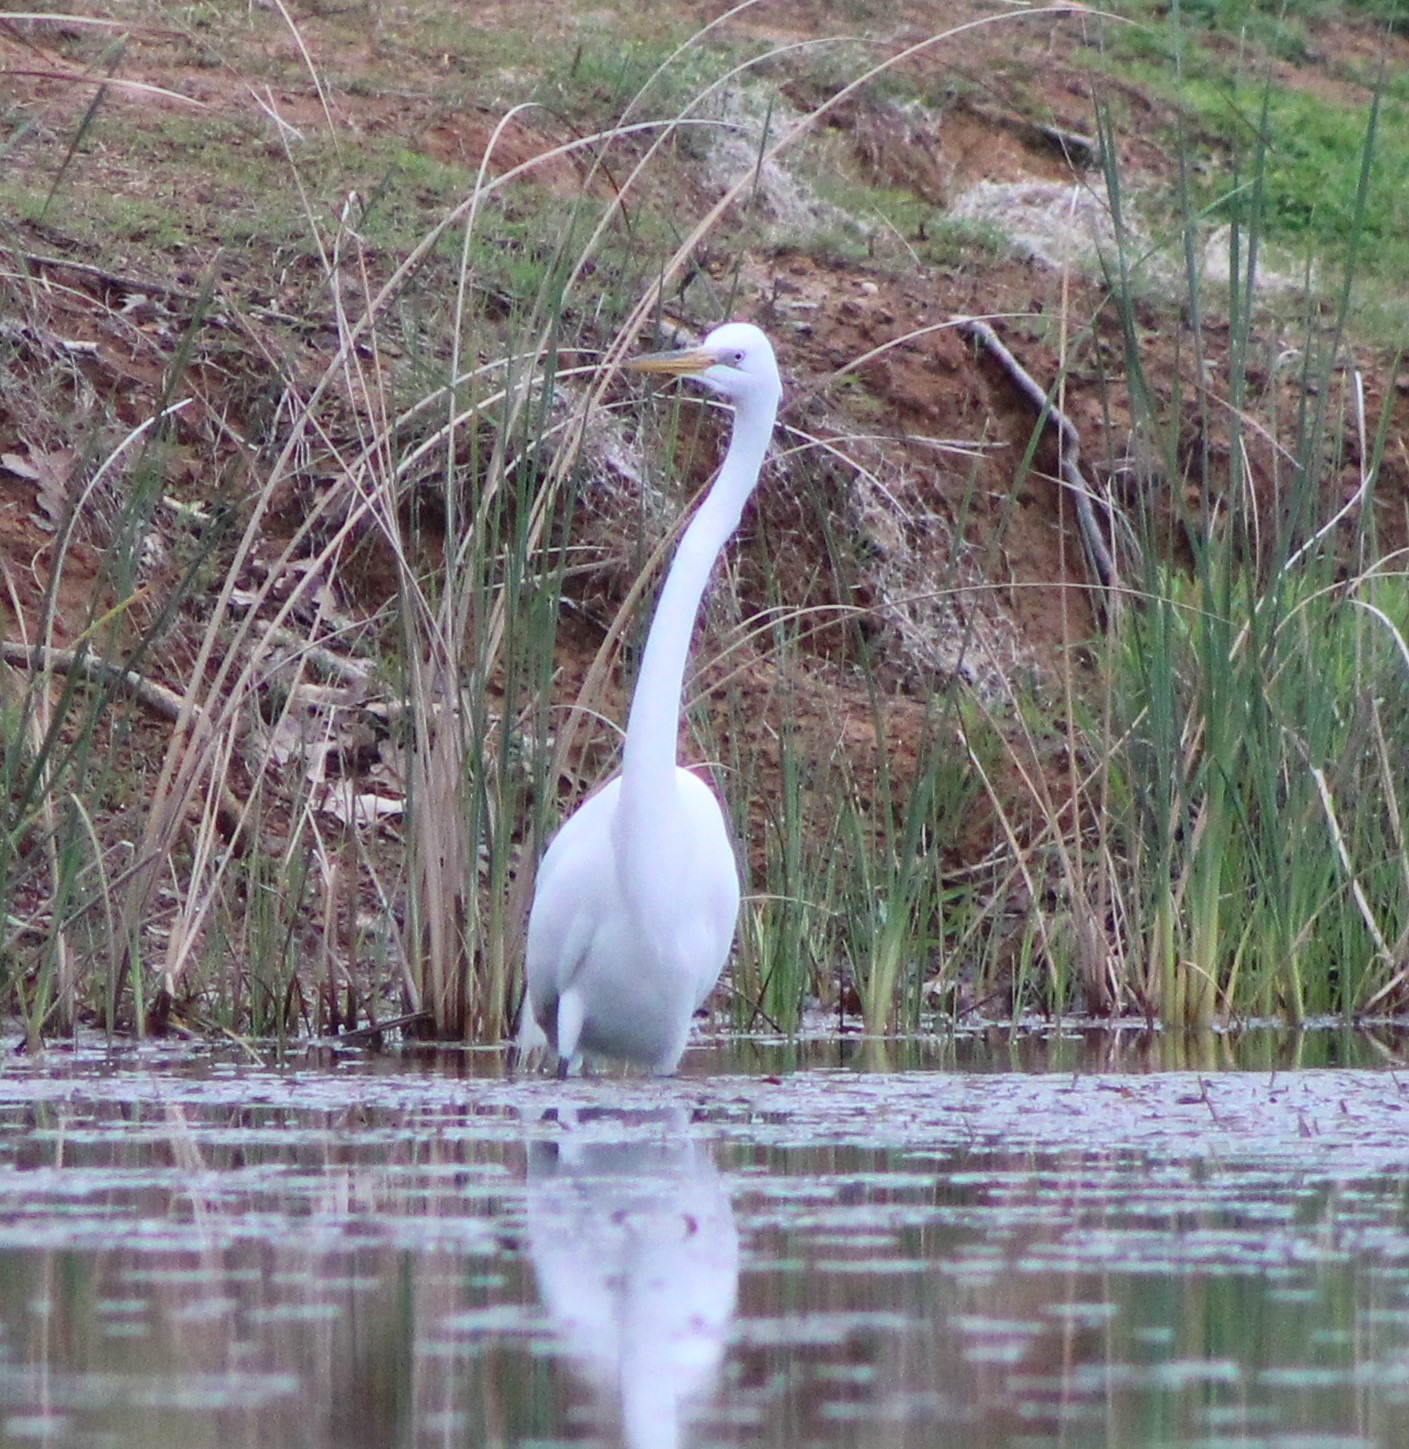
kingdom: Animalia
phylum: Chordata
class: Aves
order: Pelecaniformes
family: Ardeidae
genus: Ardea
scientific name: Ardea alba
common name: Great egret
